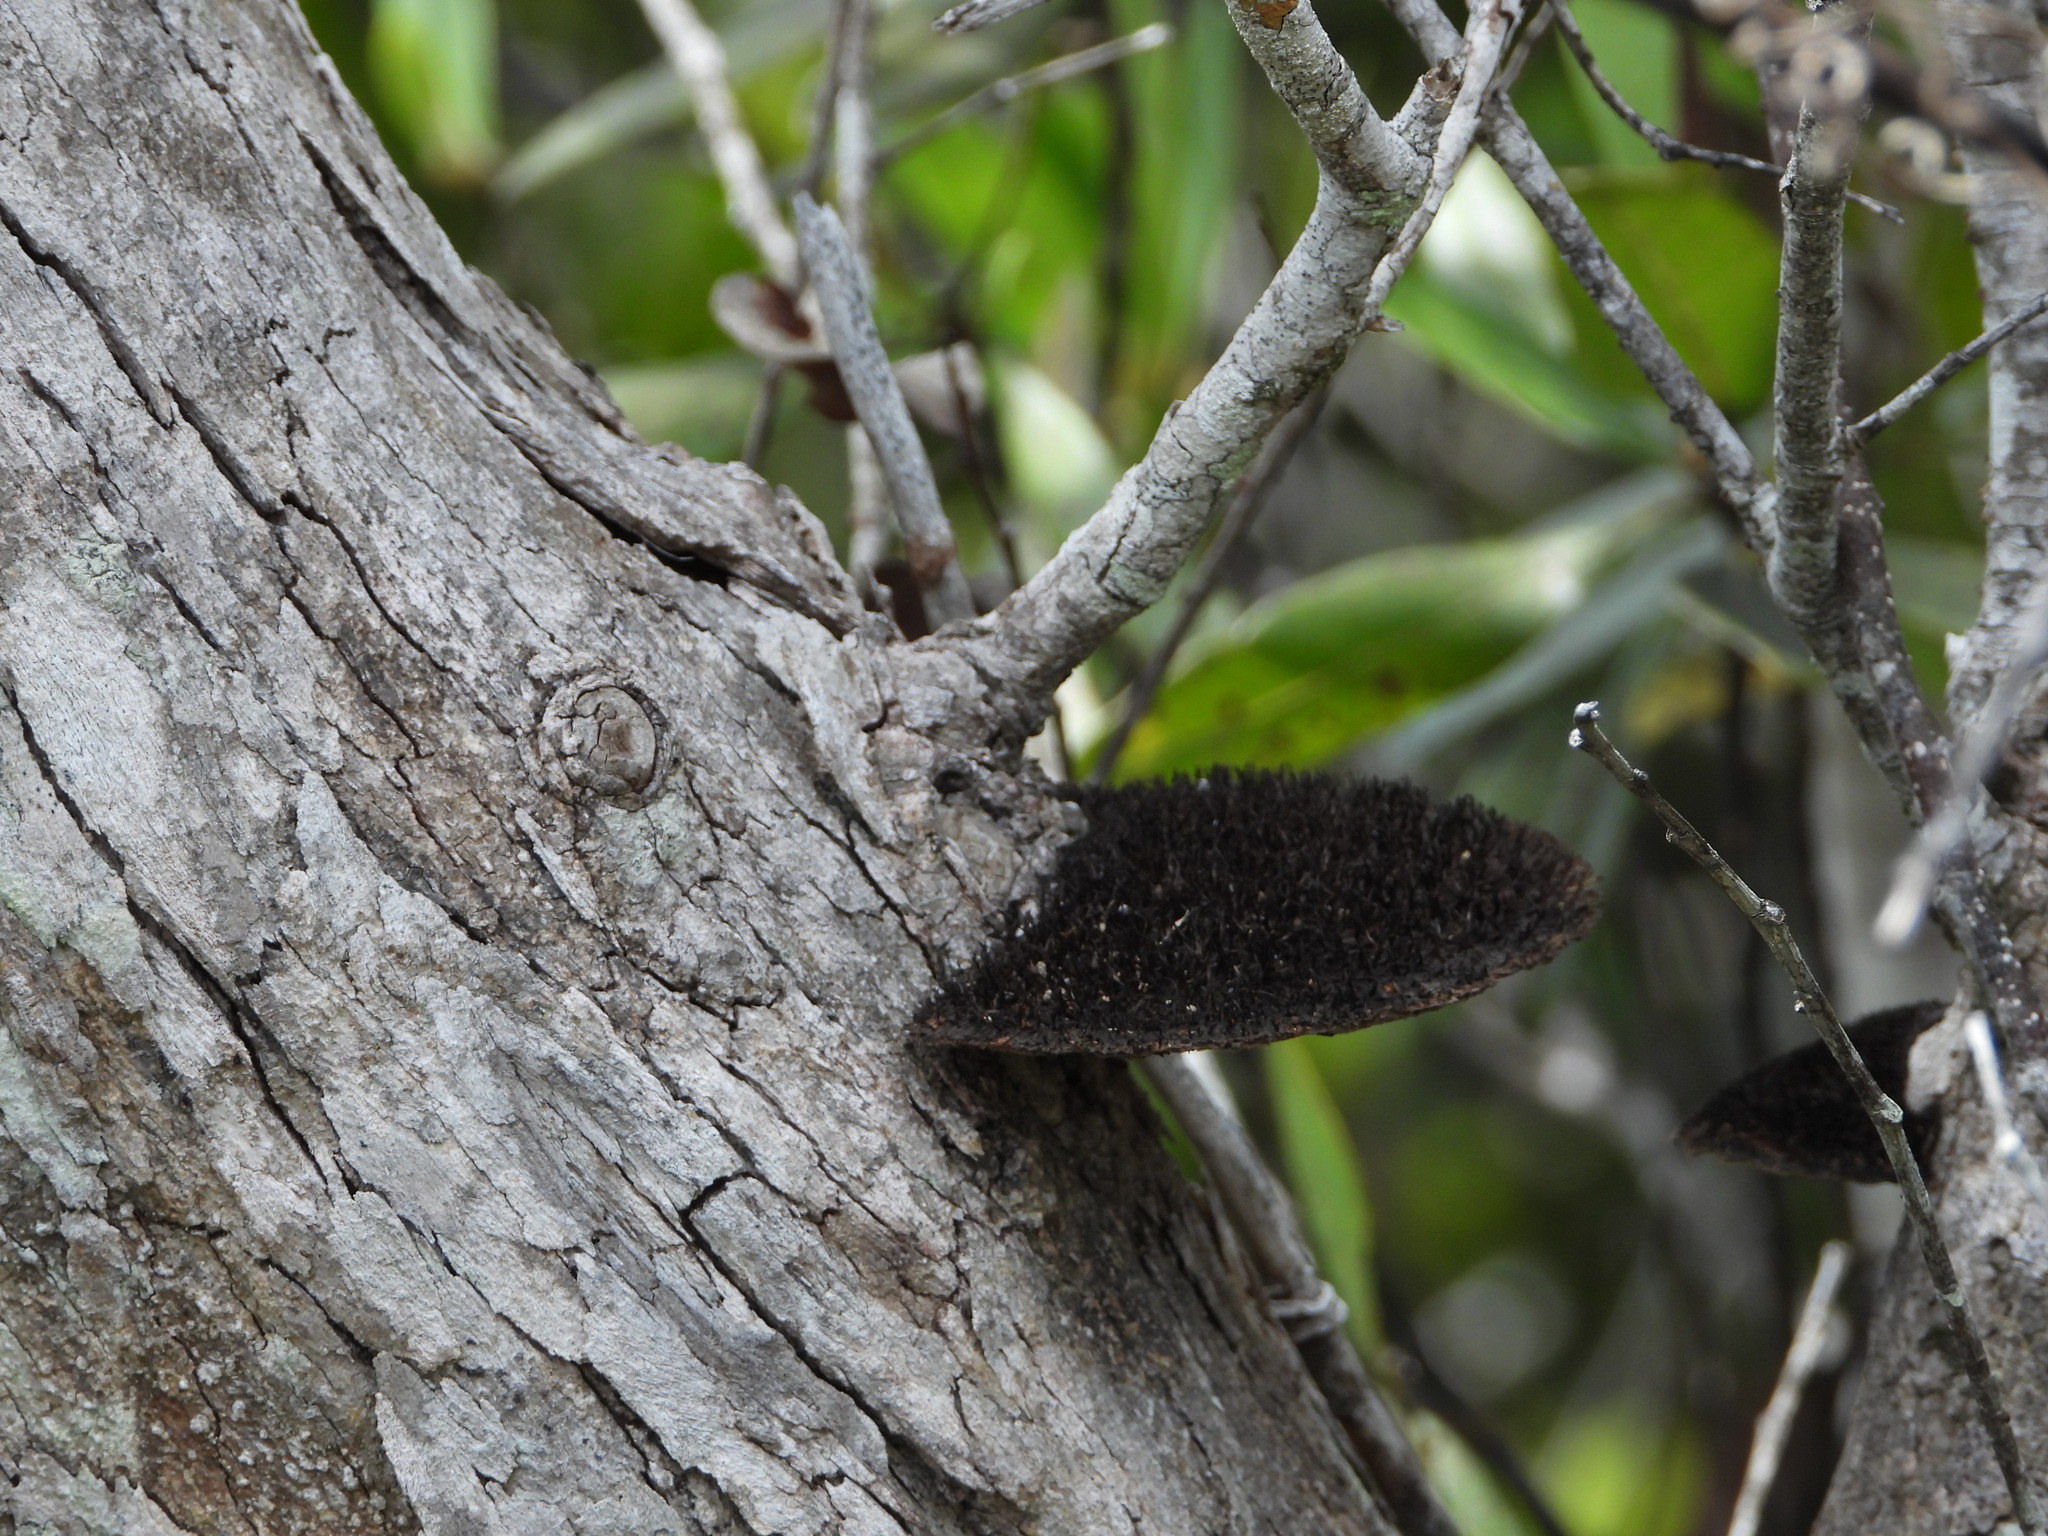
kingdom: Fungi
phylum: Basidiomycota
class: Agaricomycetes
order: Polyporales
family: Cerrenaceae
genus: Cerrena
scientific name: Cerrena hydnoides
